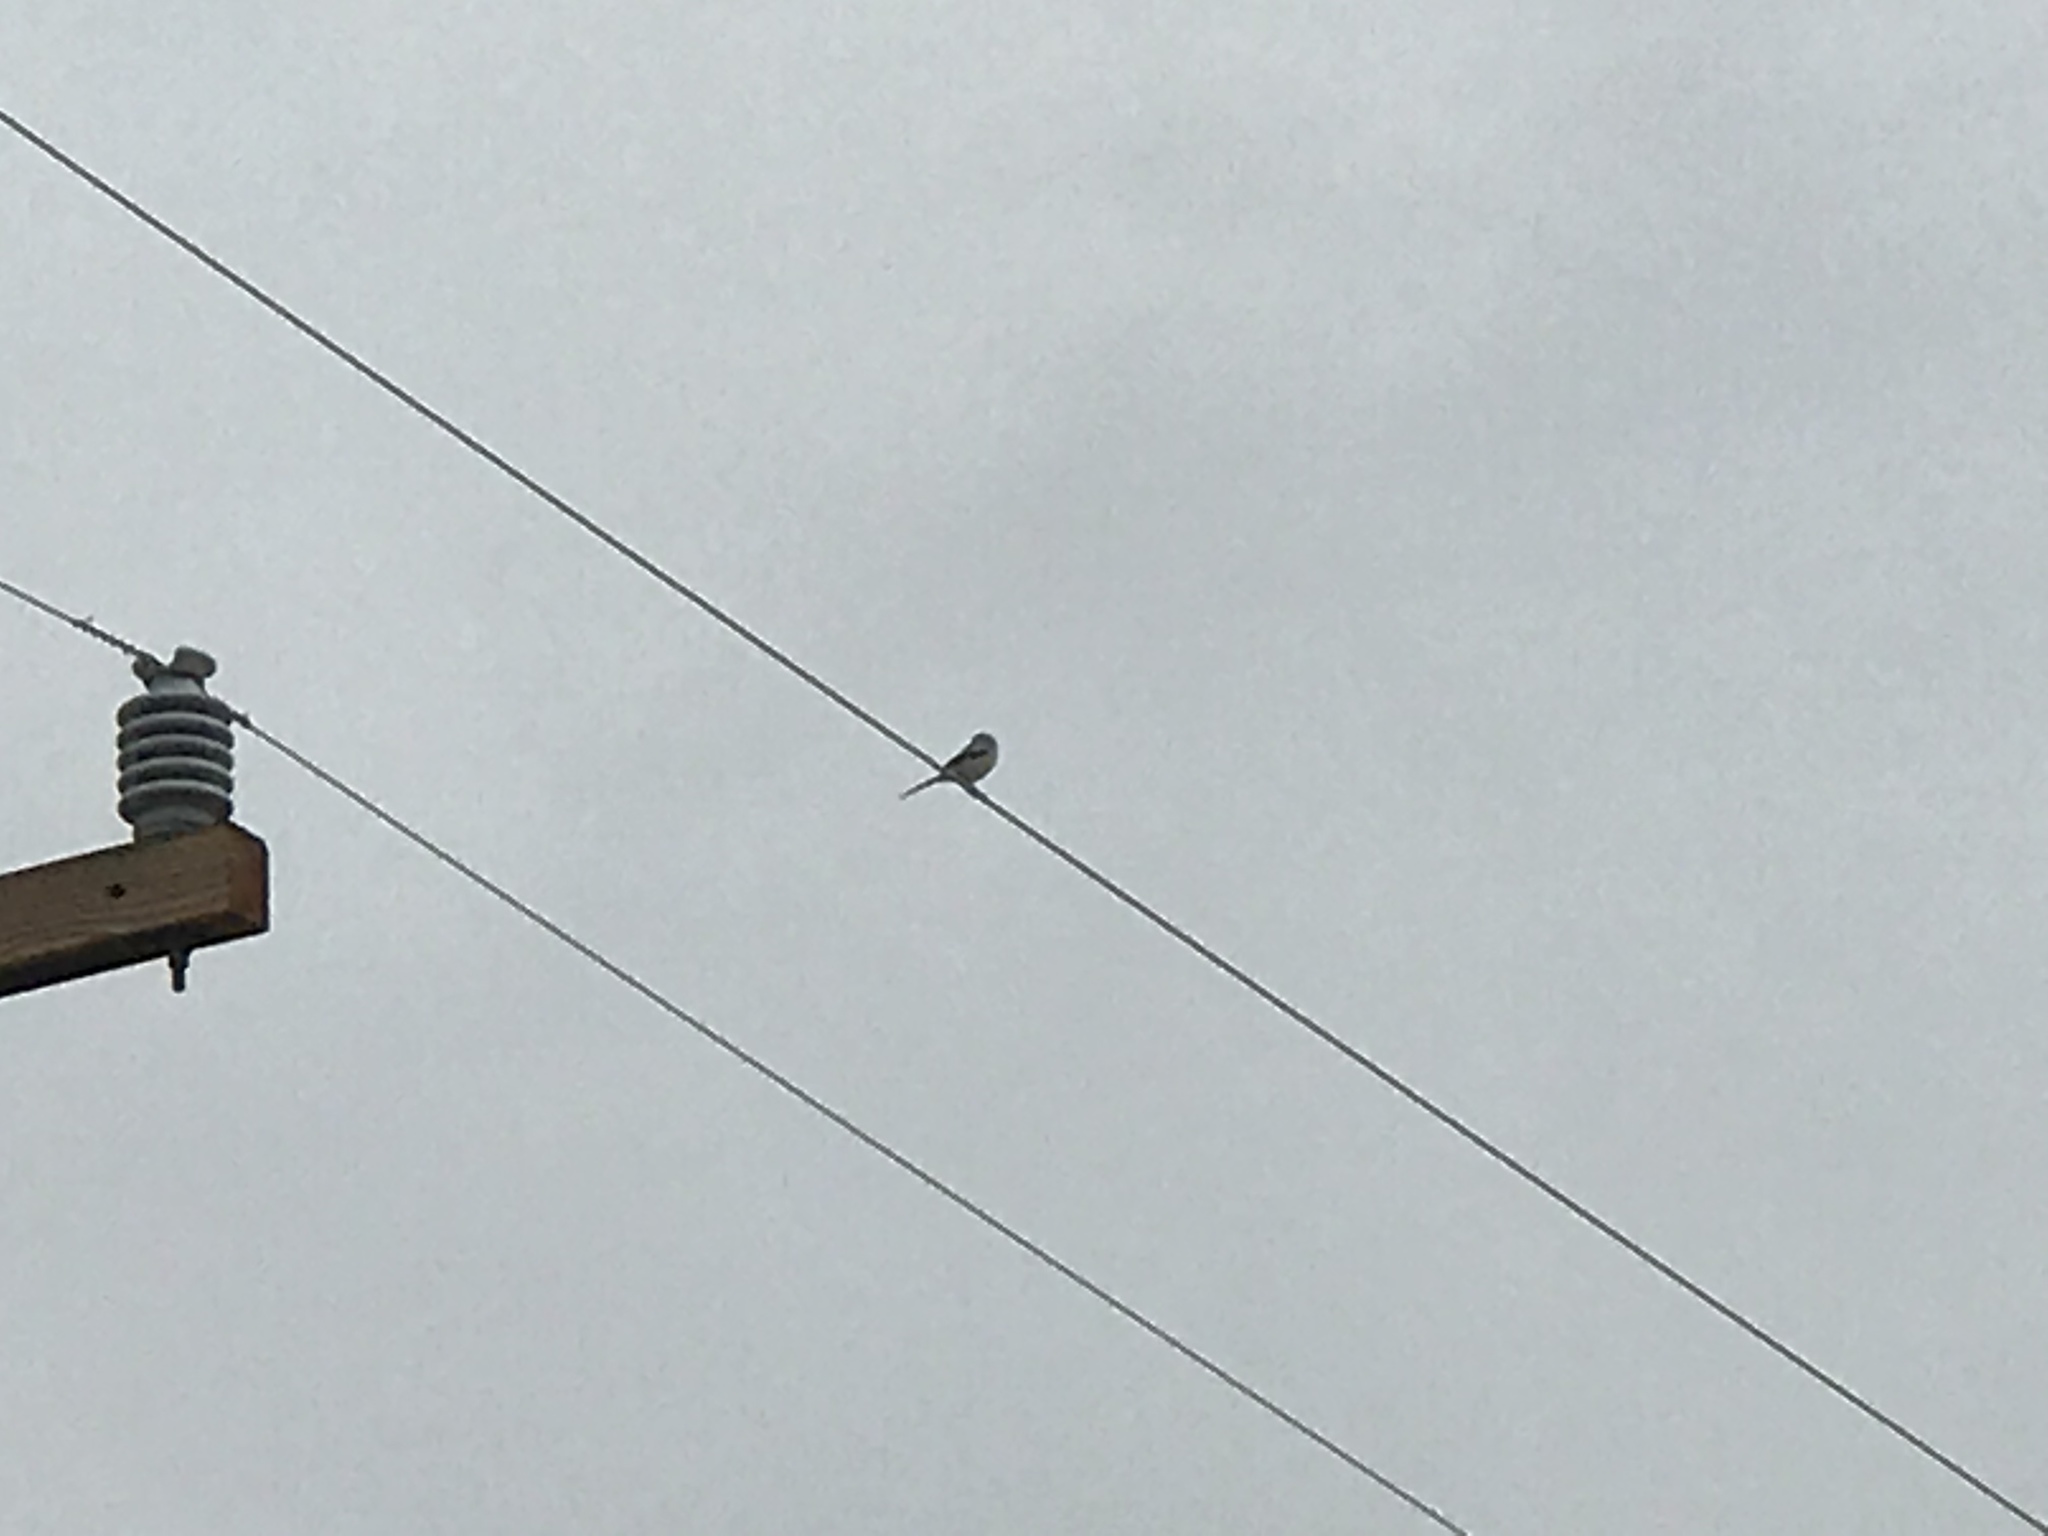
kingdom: Animalia
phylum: Chordata
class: Aves
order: Passeriformes
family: Laniidae
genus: Lanius
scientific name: Lanius ludovicianus
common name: Loggerhead shrike
